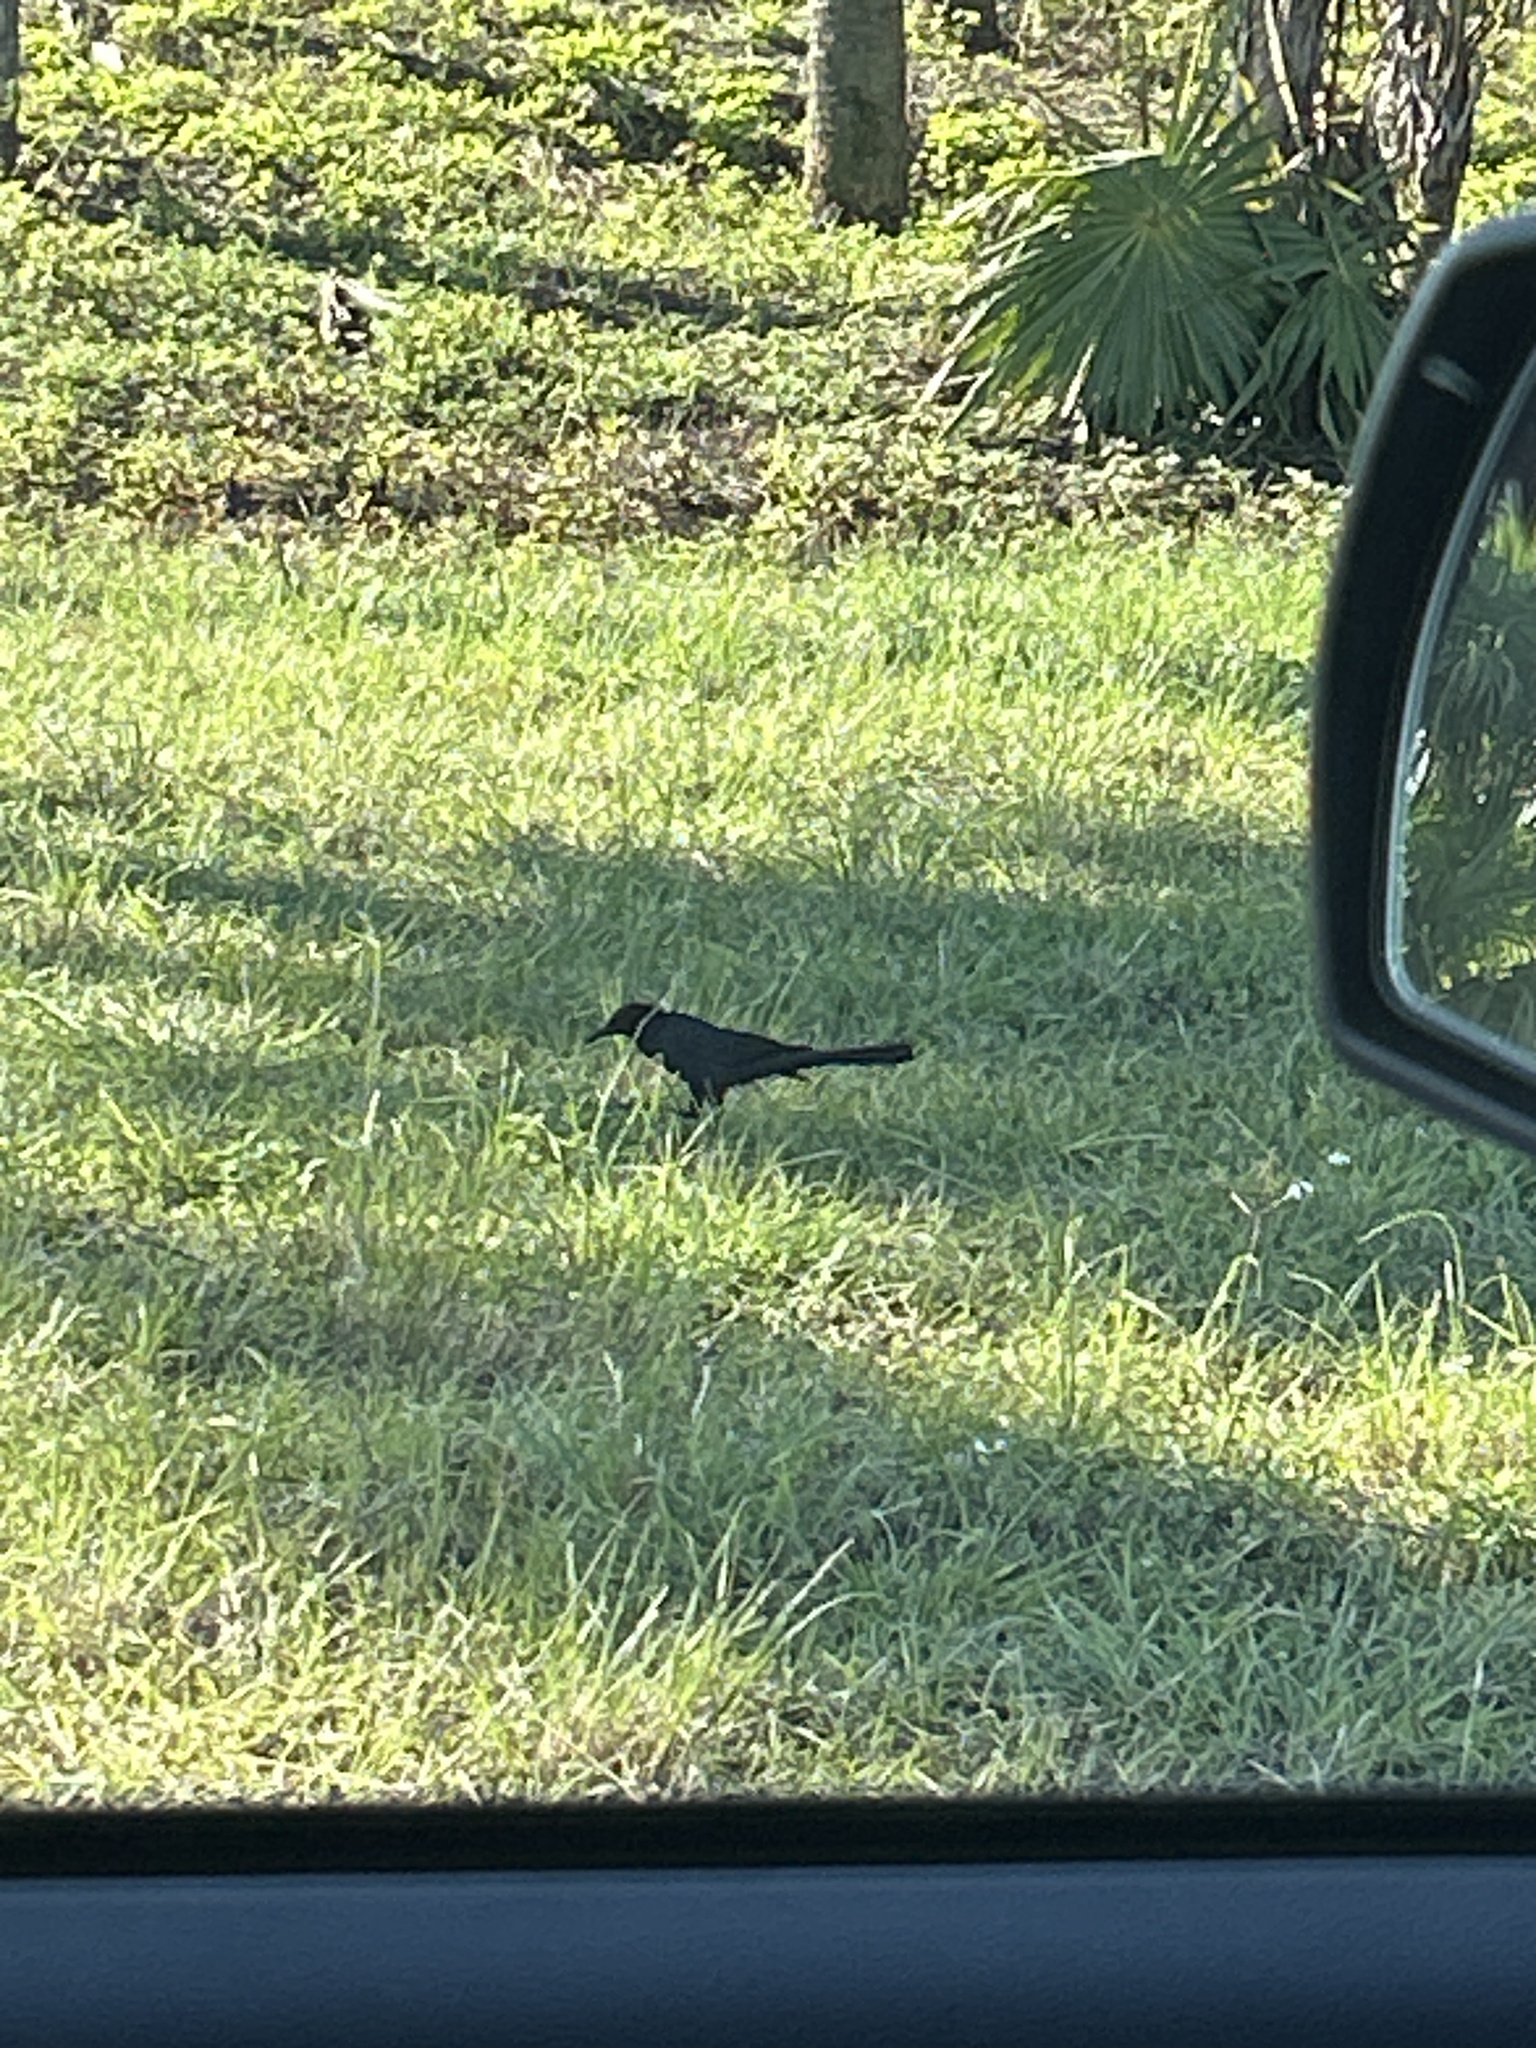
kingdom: Animalia
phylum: Chordata
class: Aves
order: Passeriformes
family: Icteridae
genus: Quiscalus
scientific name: Quiscalus major
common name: Boat-tailed grackle
